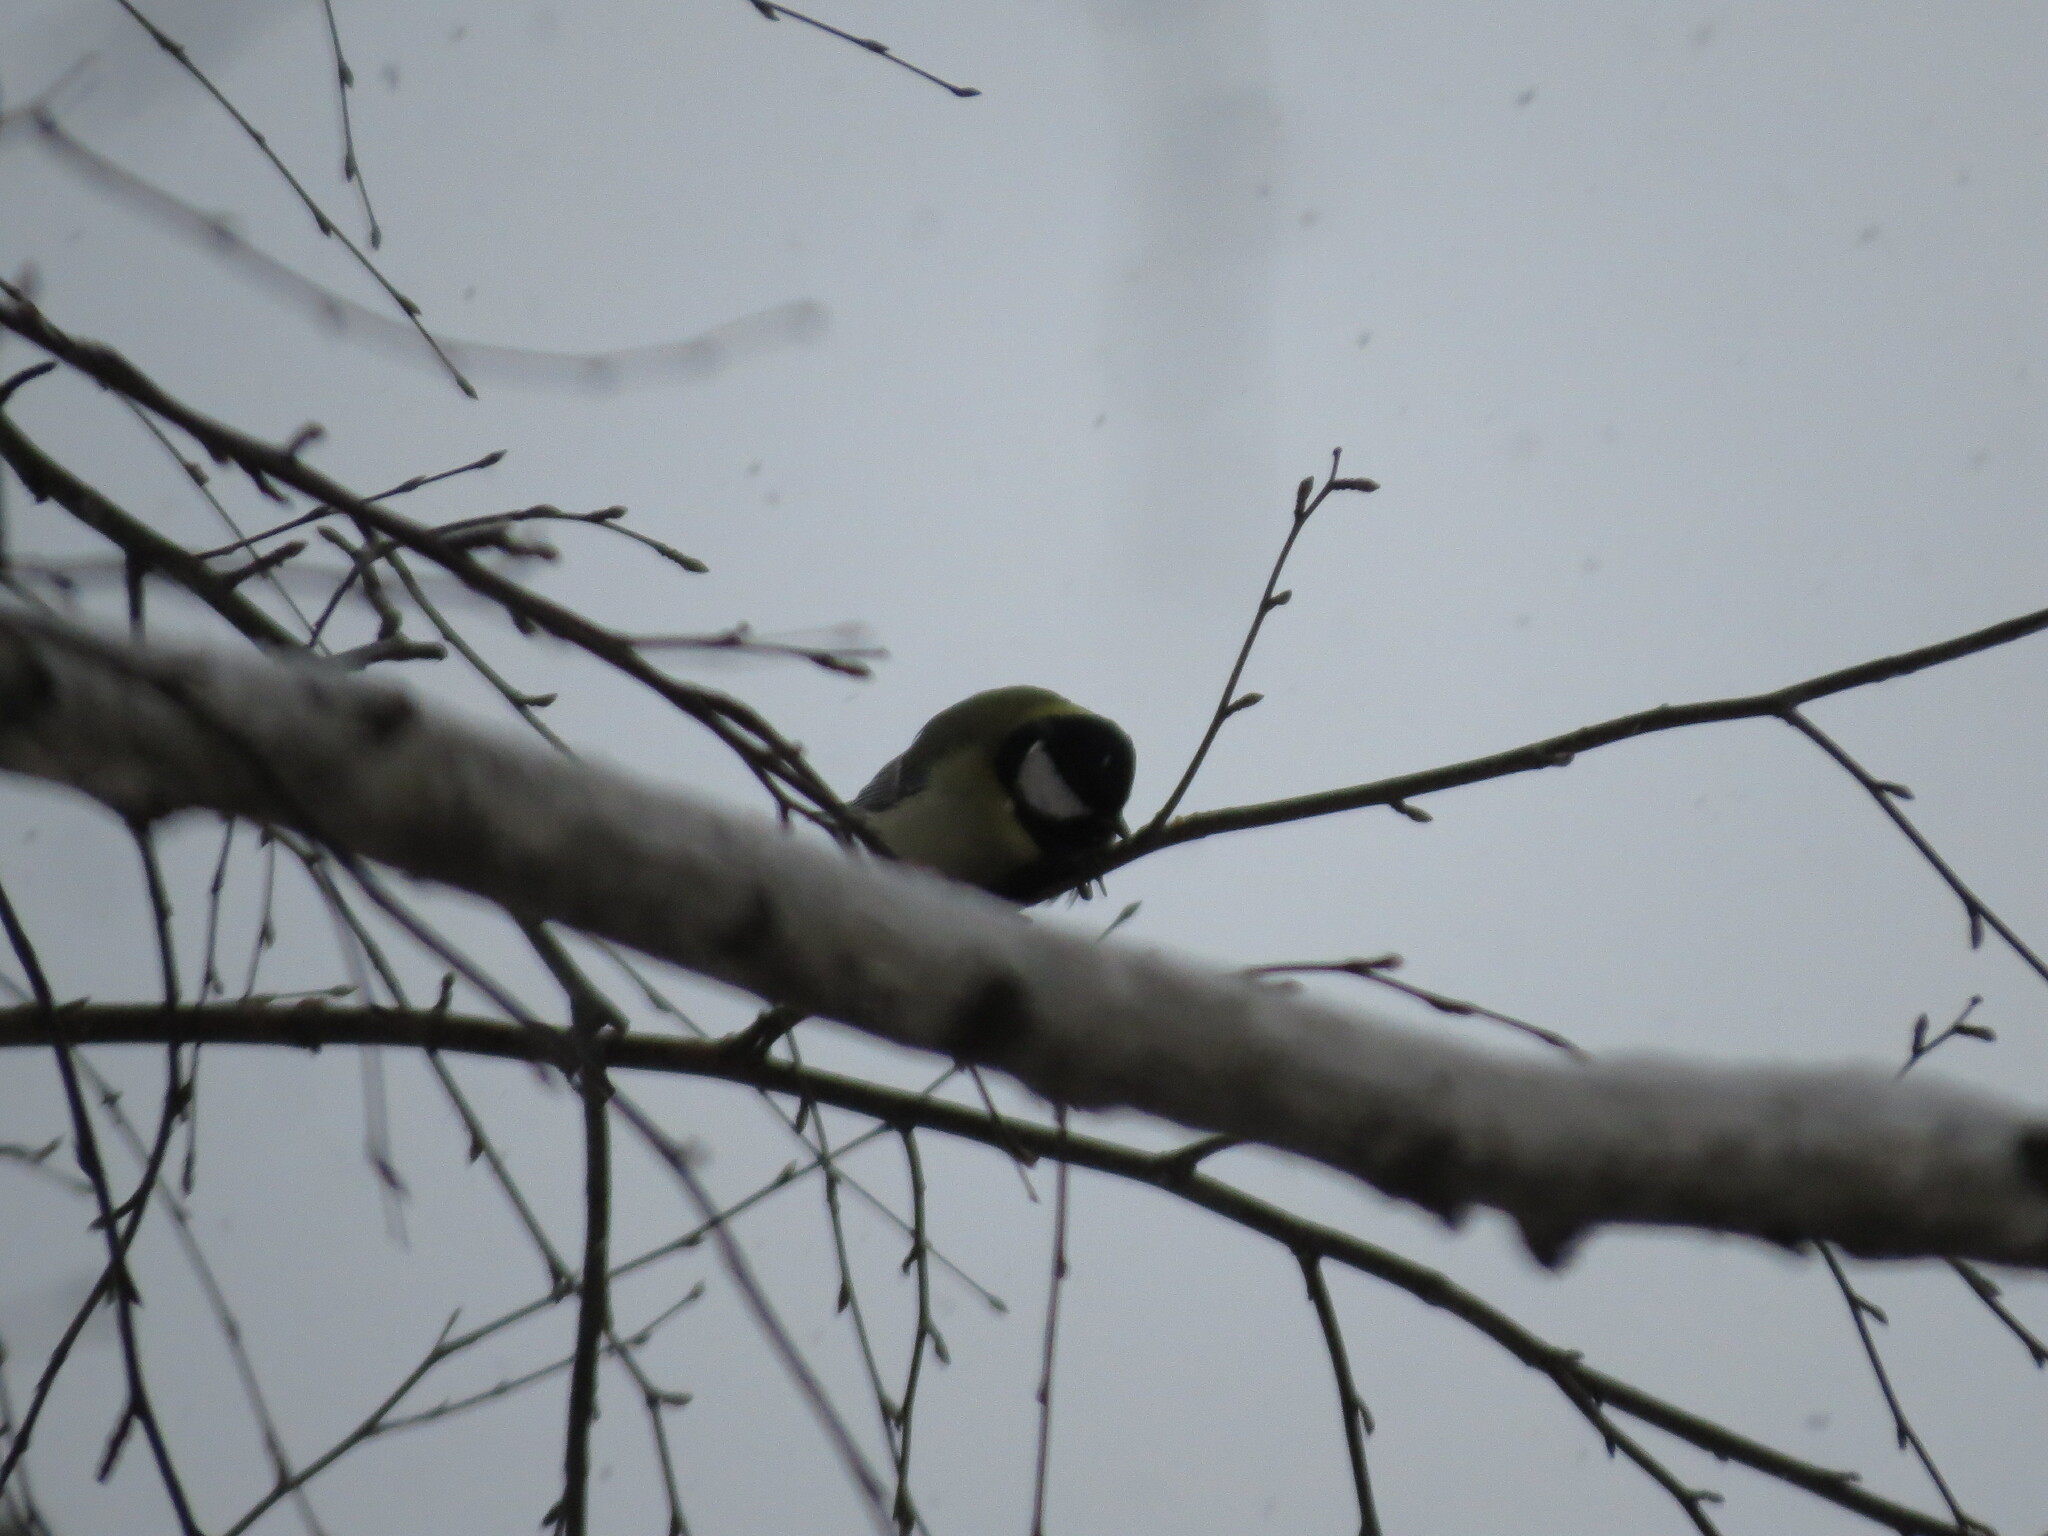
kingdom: Animalia
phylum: Chordata
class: Aves
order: Passeriformes
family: Paridae
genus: Parus
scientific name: Parus major
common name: Great tit
